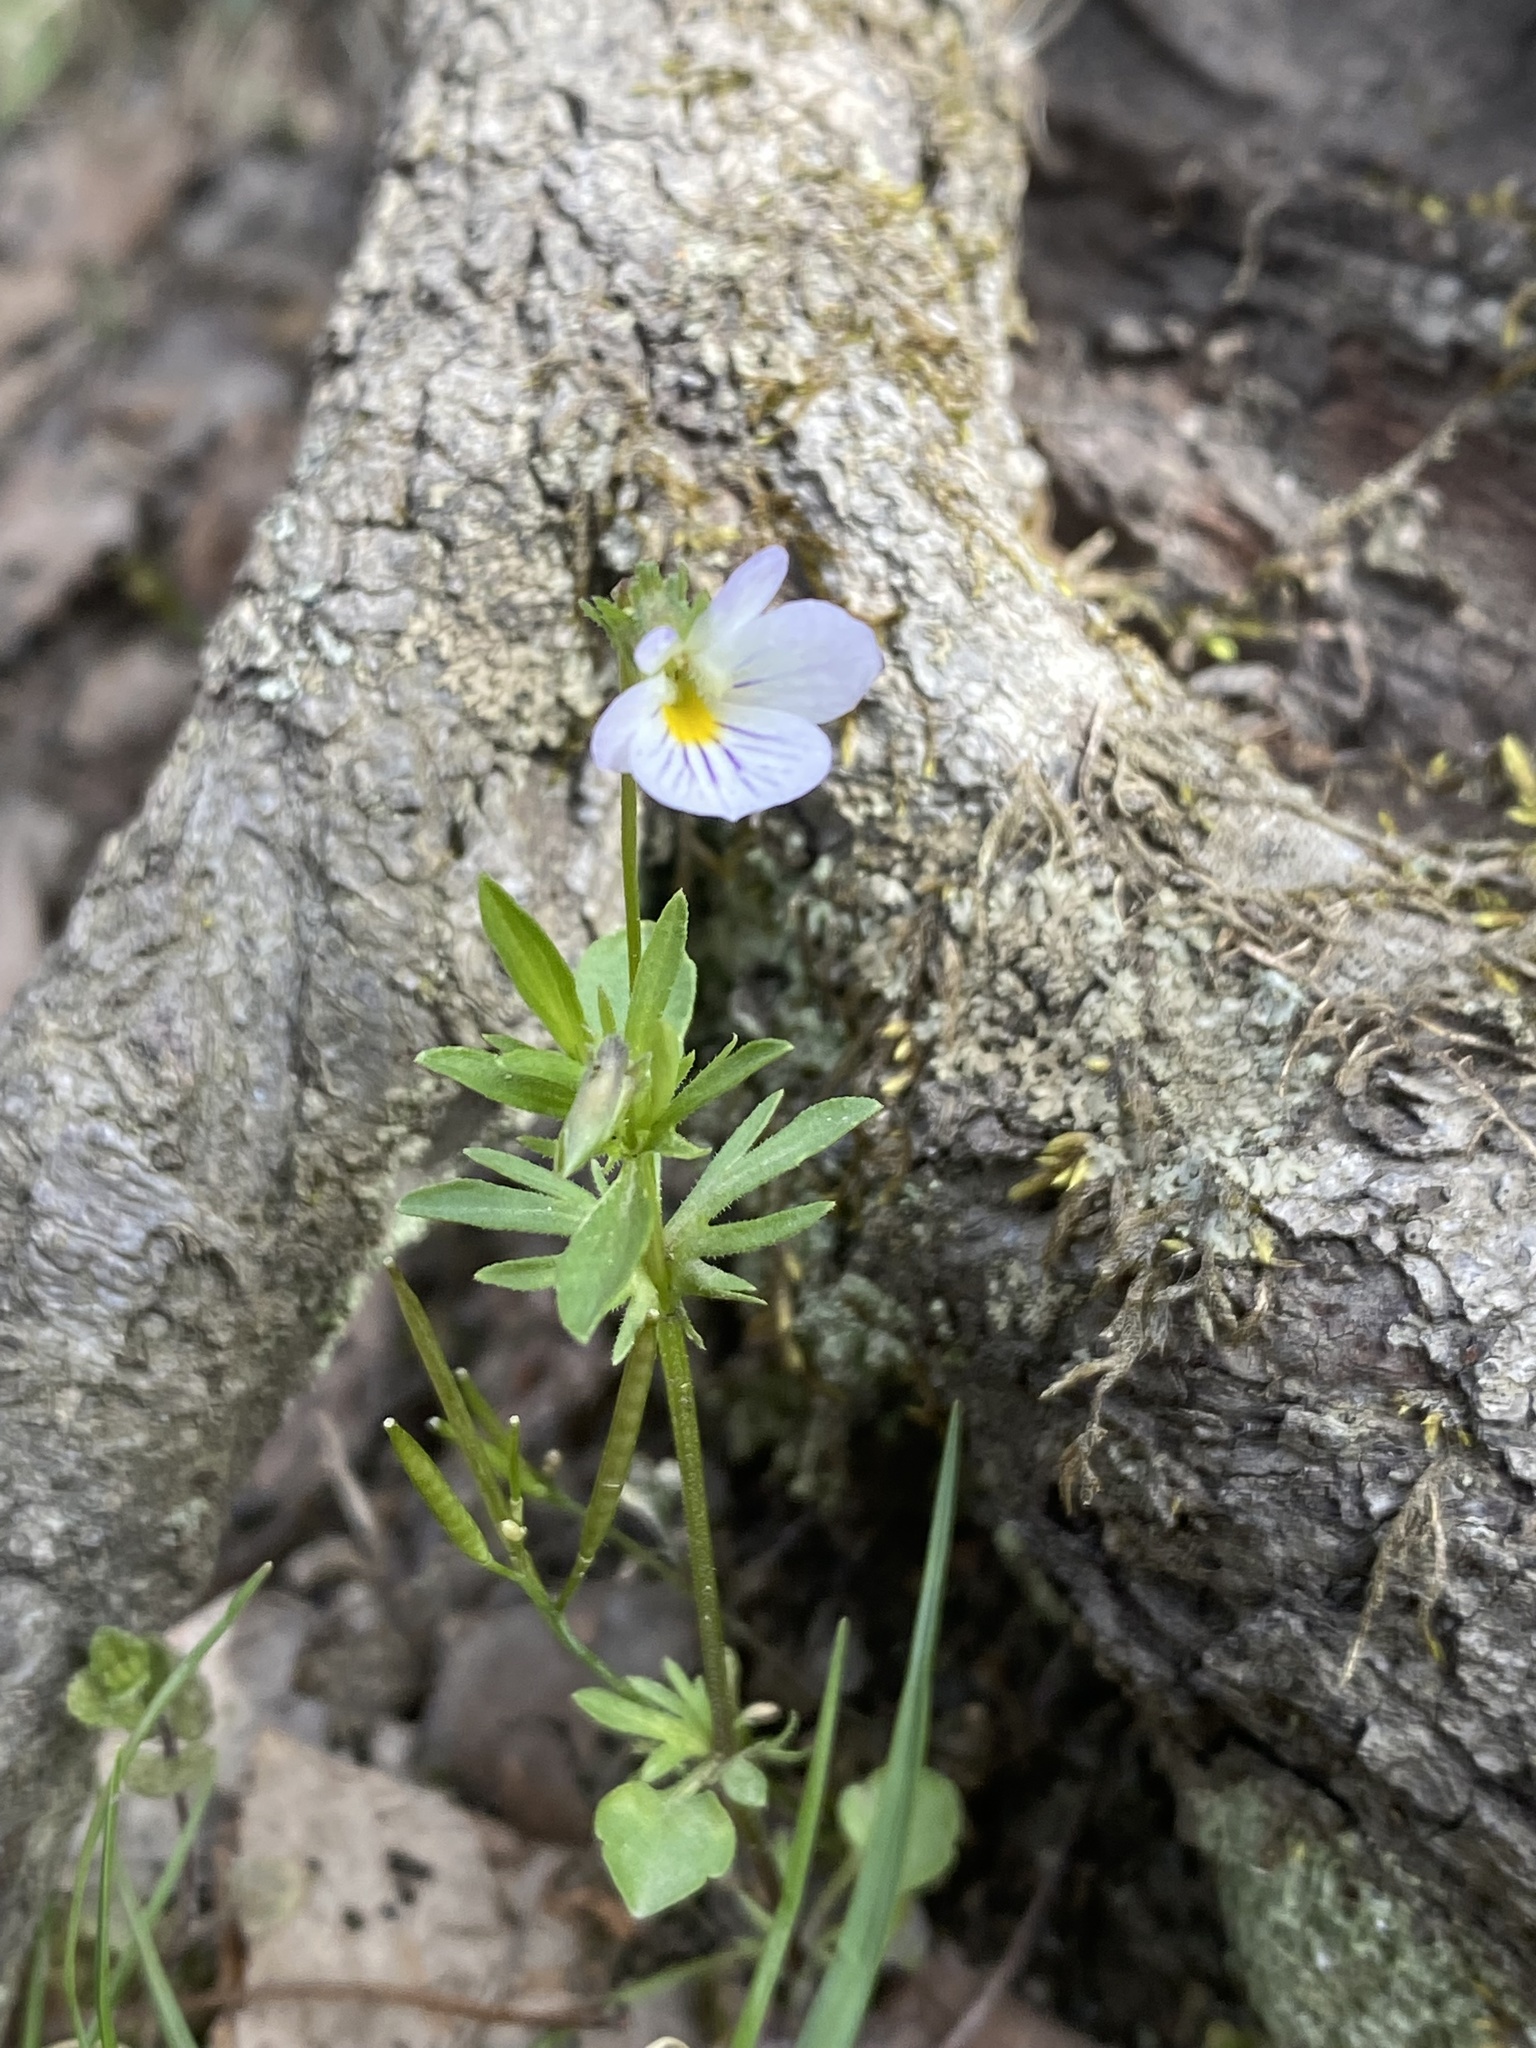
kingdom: Plantae
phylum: Tracheophyta
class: Magnoliopsida
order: Malpighiales
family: Violaceae
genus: Viola
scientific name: Viola rafinesquei
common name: American field pansy
